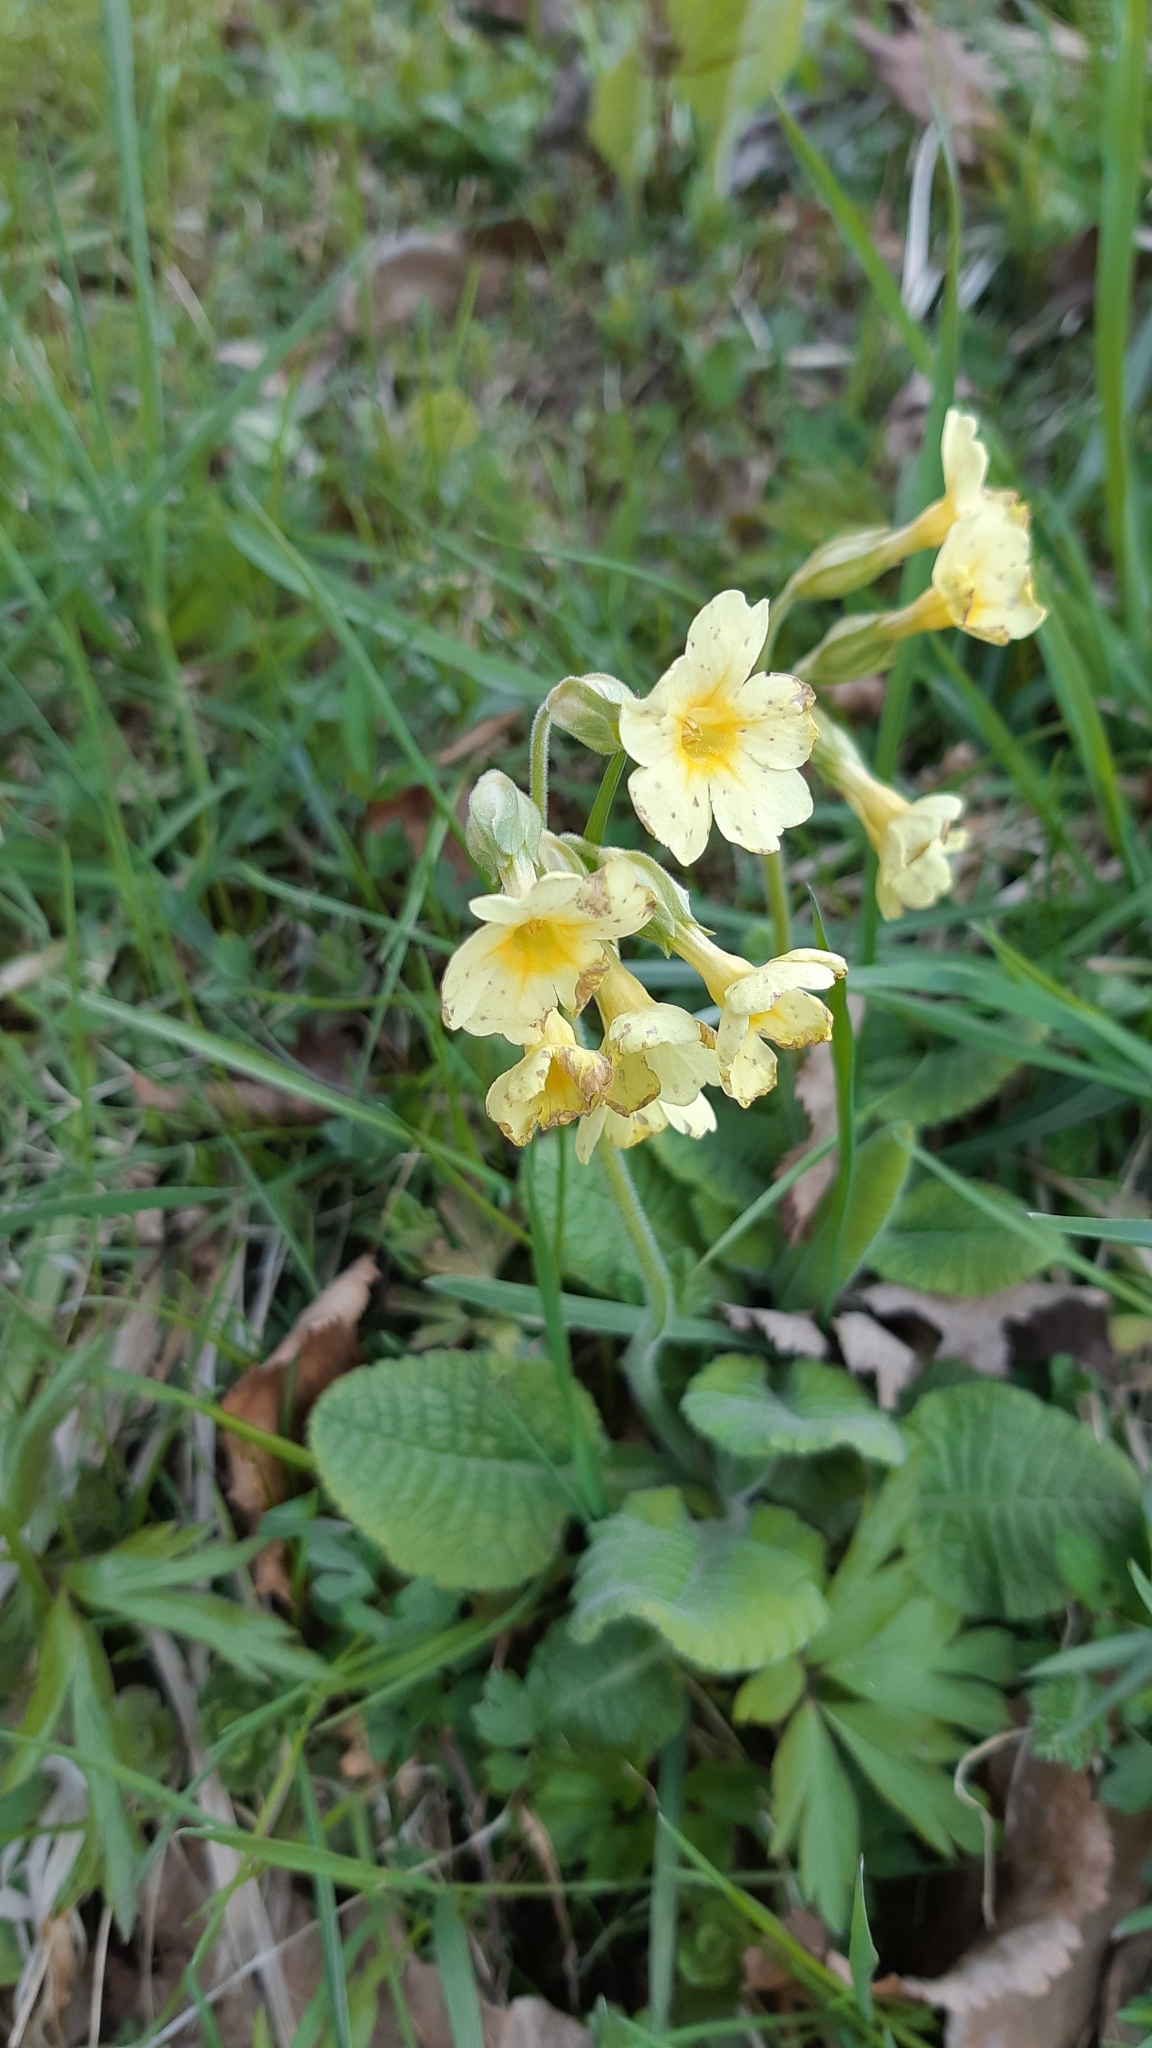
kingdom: Plantae
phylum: Tracheophyta
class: Magnoliopsida
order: Ericales
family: Primulaceae
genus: Primula
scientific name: Primula elatior
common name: Oxlip
